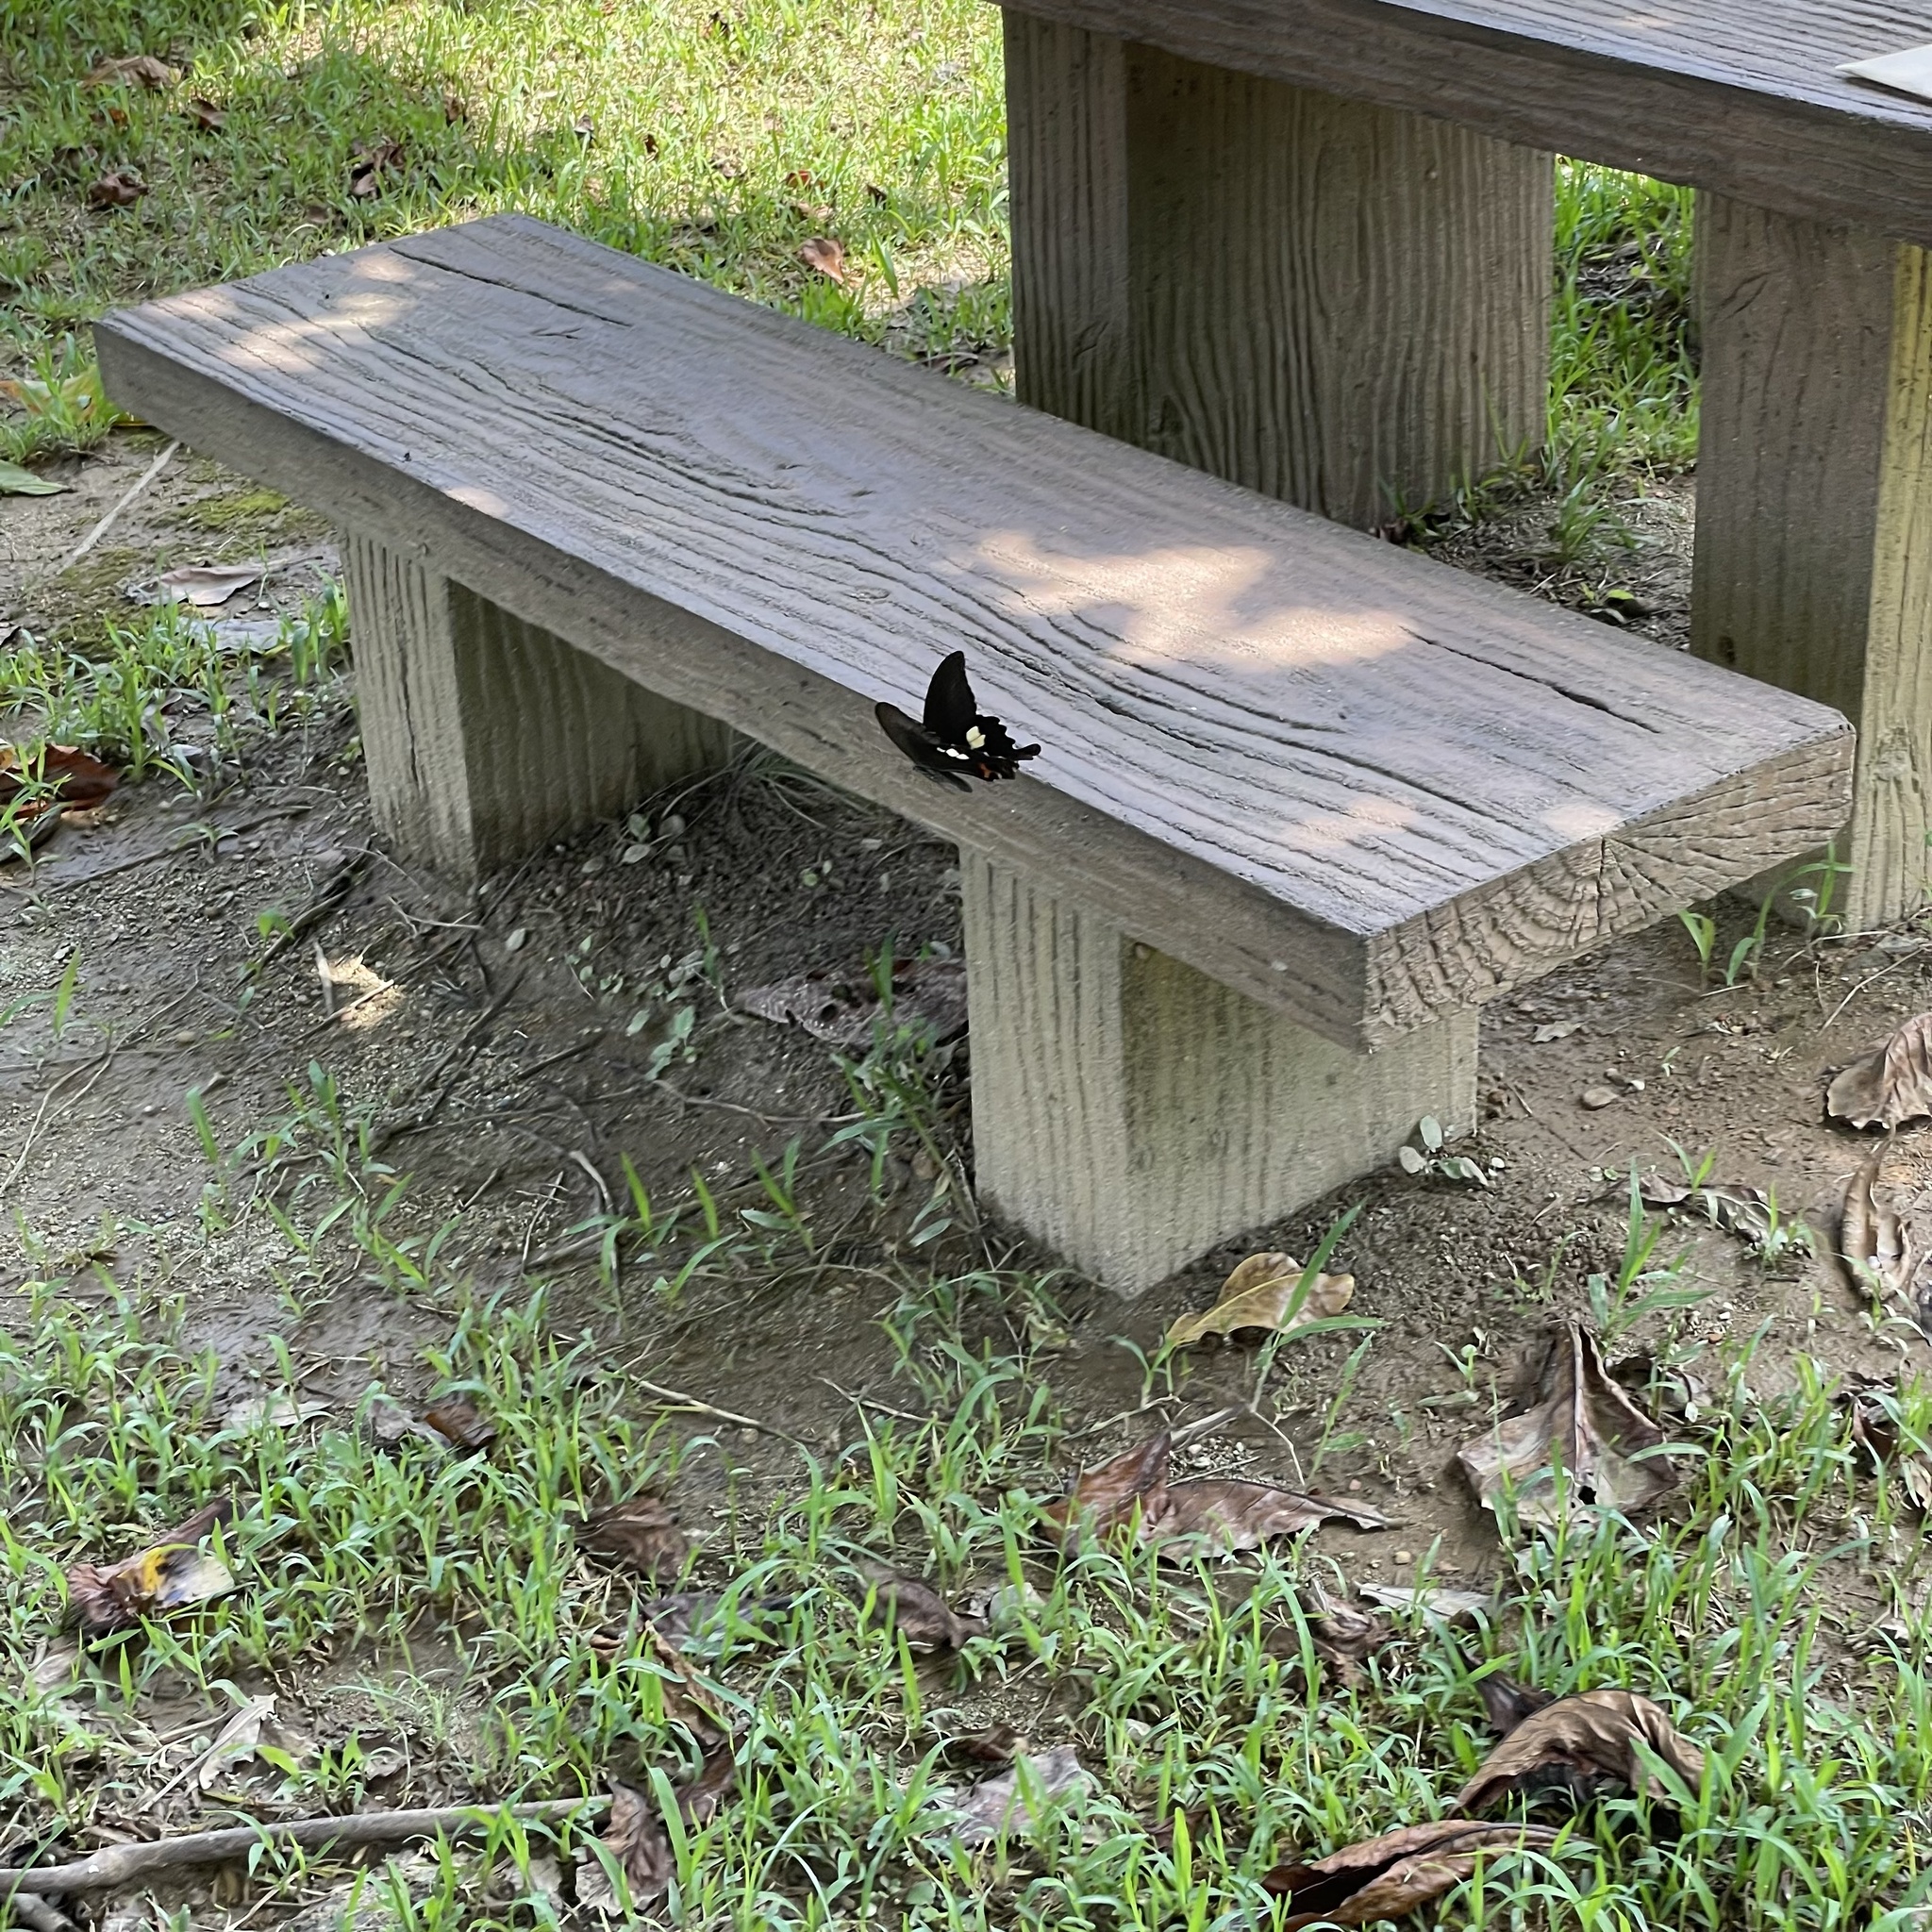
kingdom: Animalia
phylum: Arthropoda
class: Insecta
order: Lepidoptera
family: Papilionidae
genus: Papilio
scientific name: Papilio helenus
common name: Red helen
